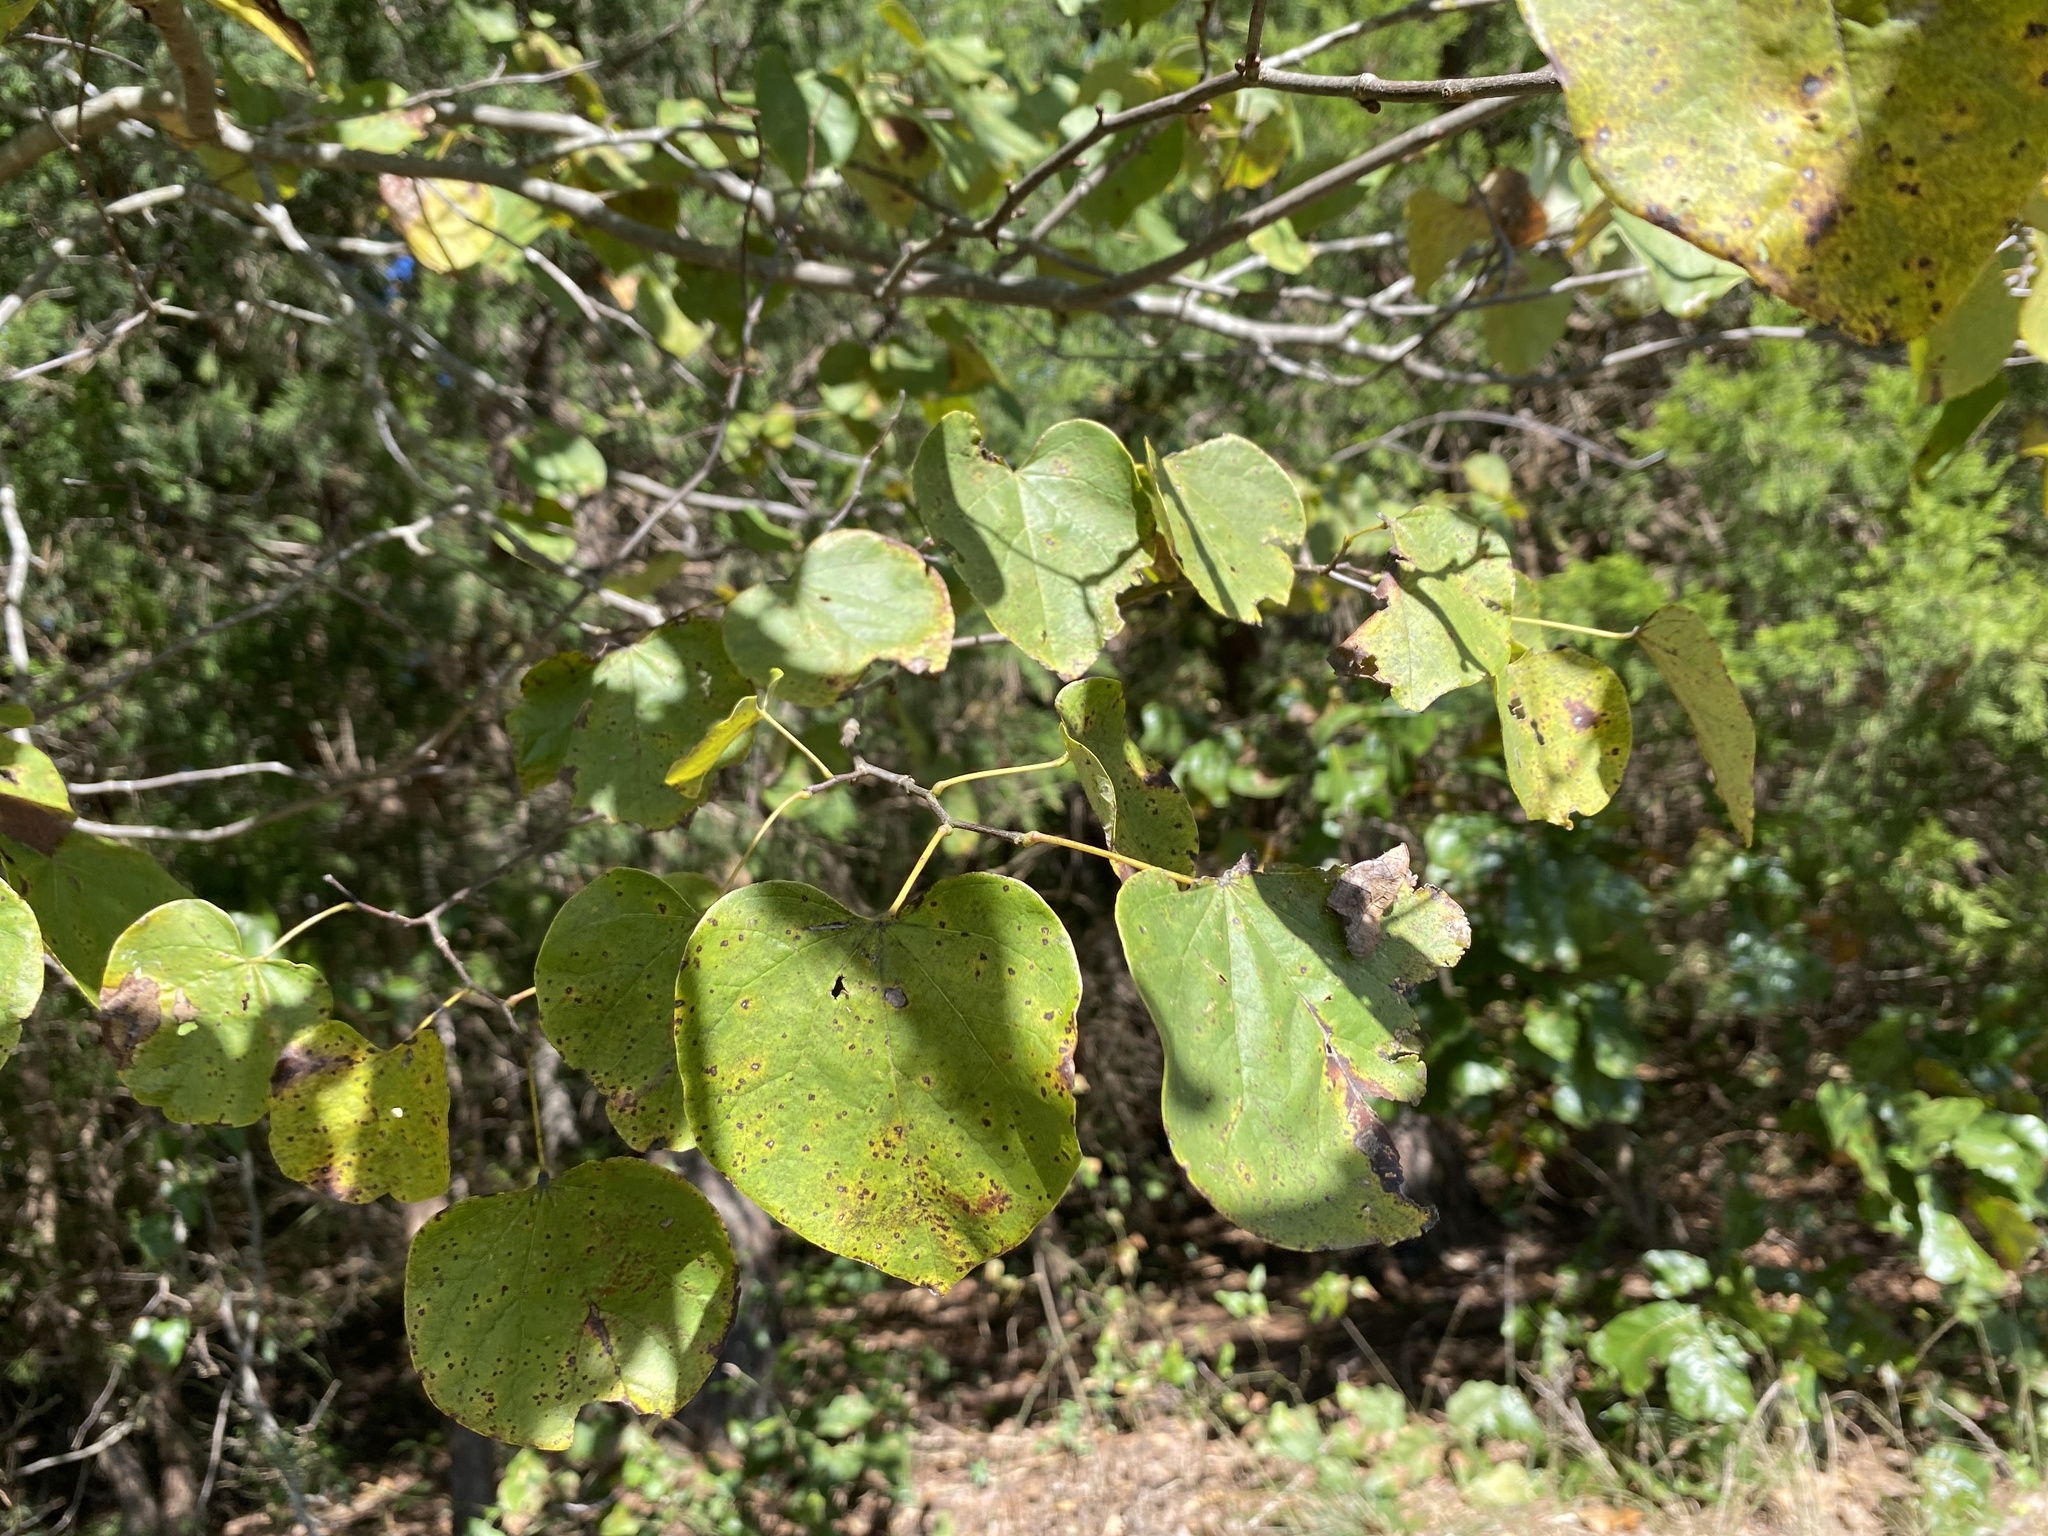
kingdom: Plantae
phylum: Tracheophyta
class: Magnoliopsida
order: Fabales
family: Fabaceae
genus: Cercis
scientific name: Cercis canadensis
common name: Eastern redbud
